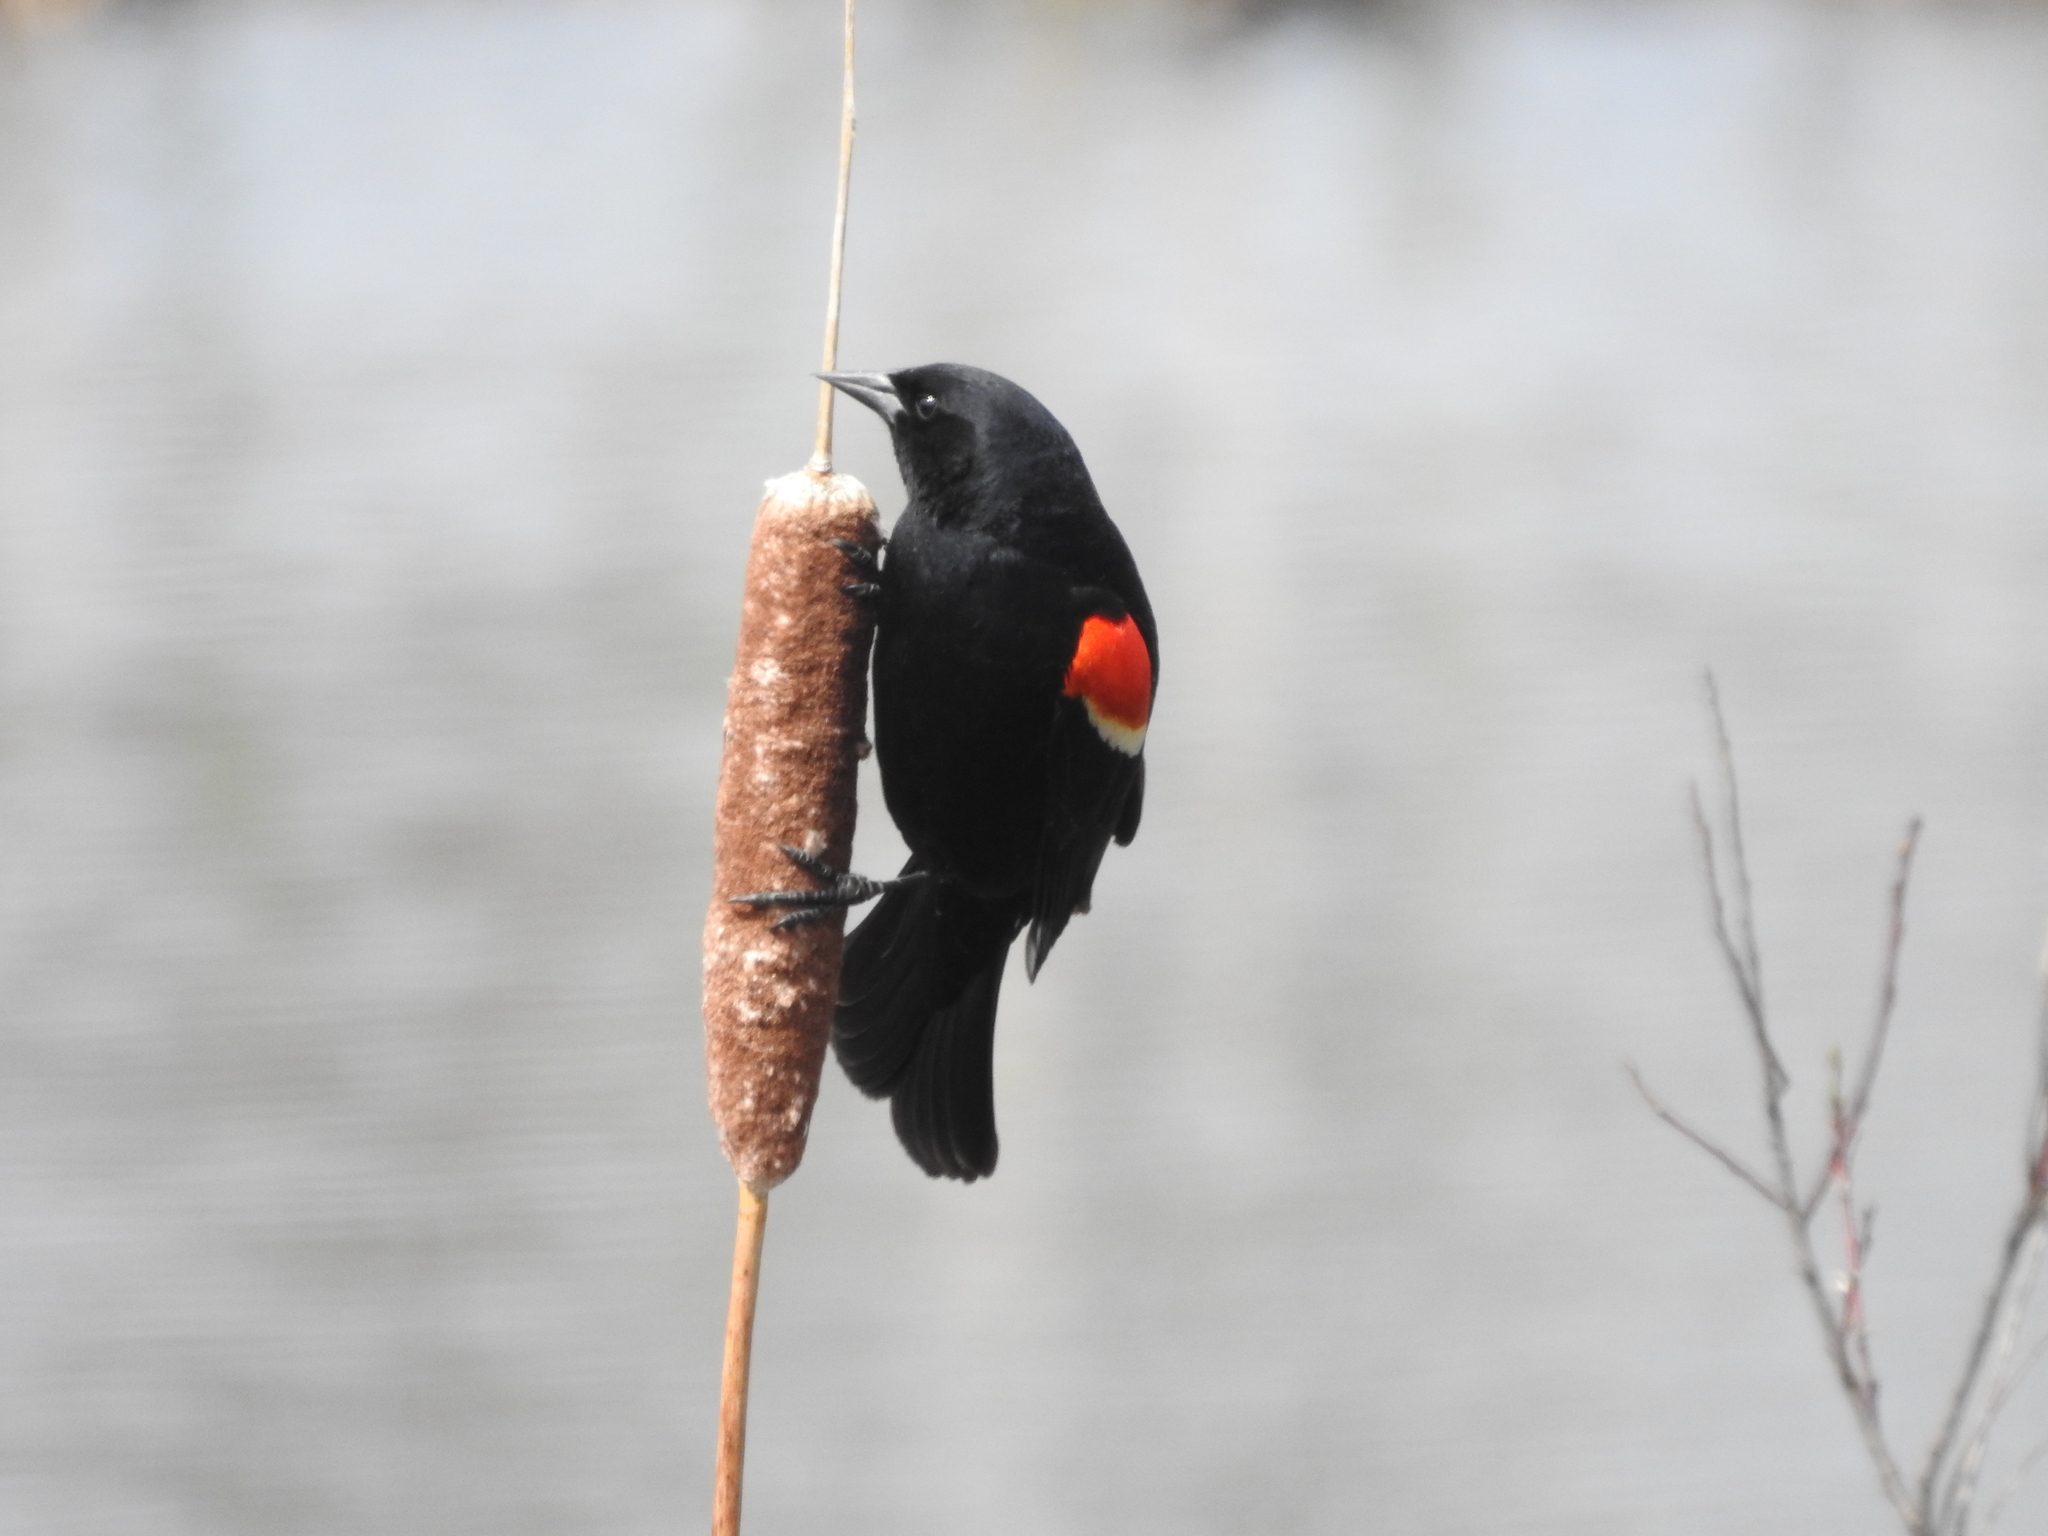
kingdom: Animalia
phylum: Chordata
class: Aves
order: Passeriformes
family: Icteridae
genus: Agelaius
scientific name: Agelaius phoeniceus
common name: Red-winged blackbird
